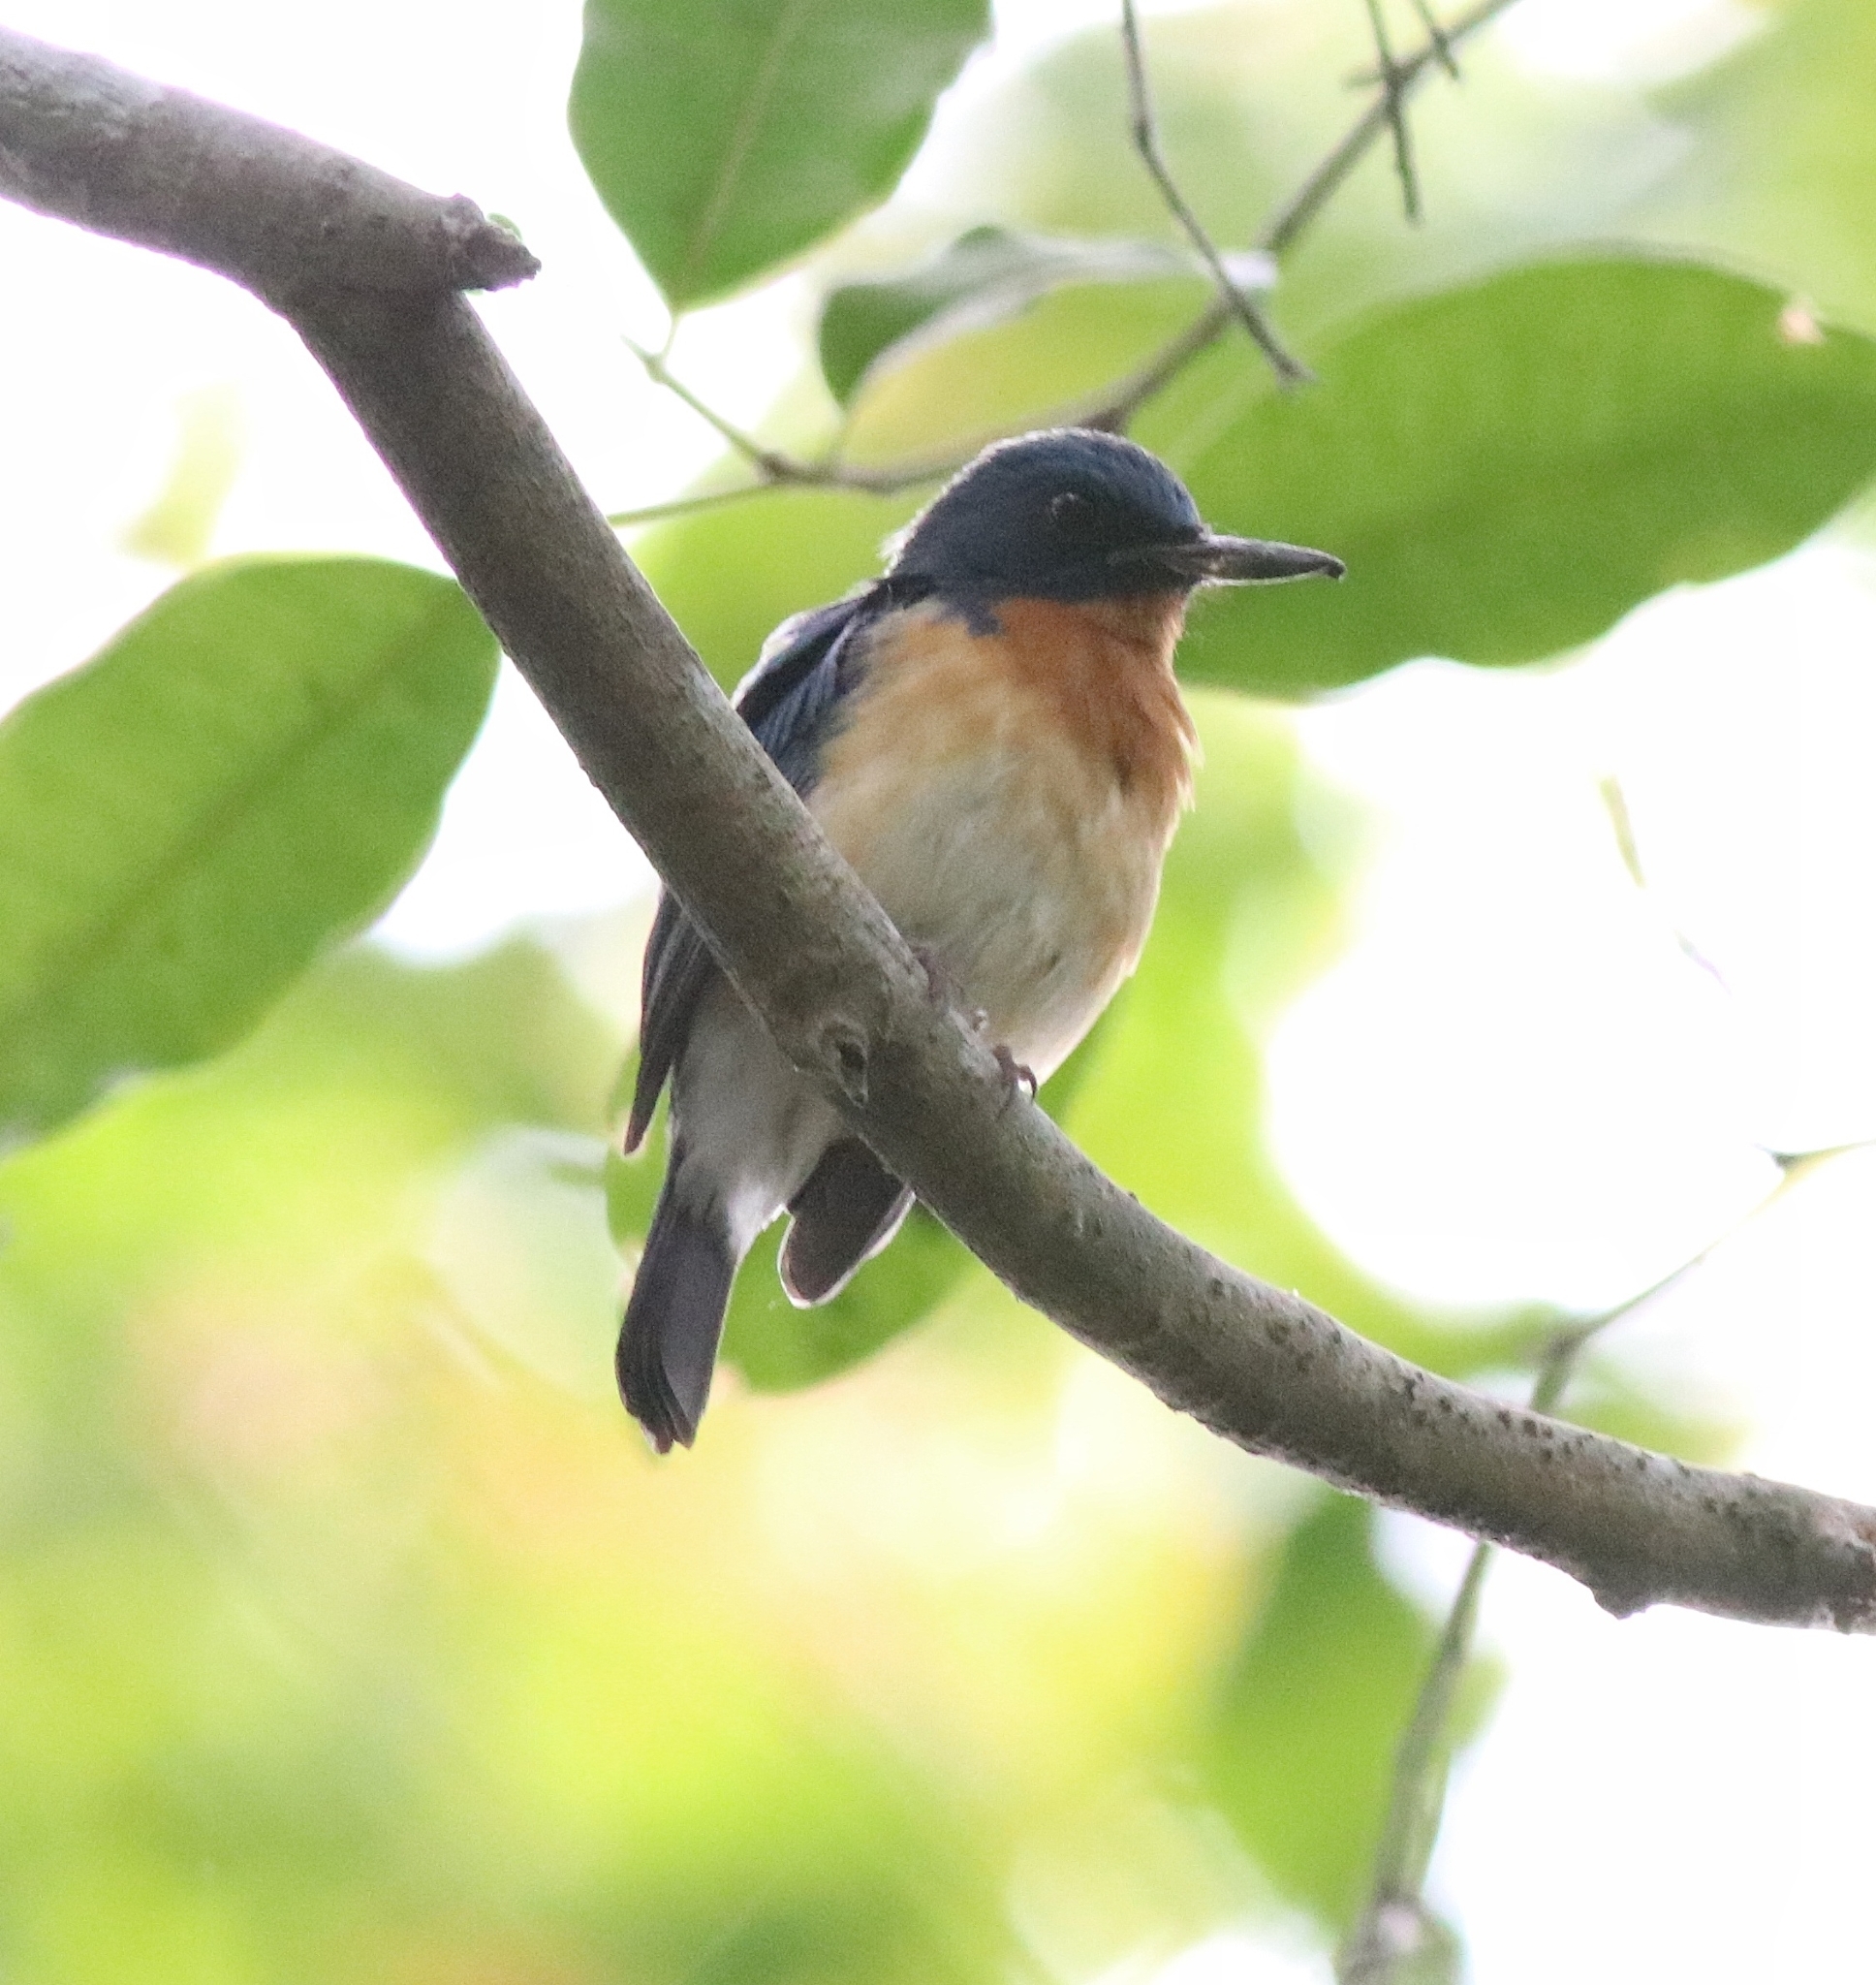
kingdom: Animalia
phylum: Chordata
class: Aves
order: Passeriformes
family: Muscicapidae
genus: Cyornis
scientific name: Cyornis tickelliae
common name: Tickell's blue flycatcher
